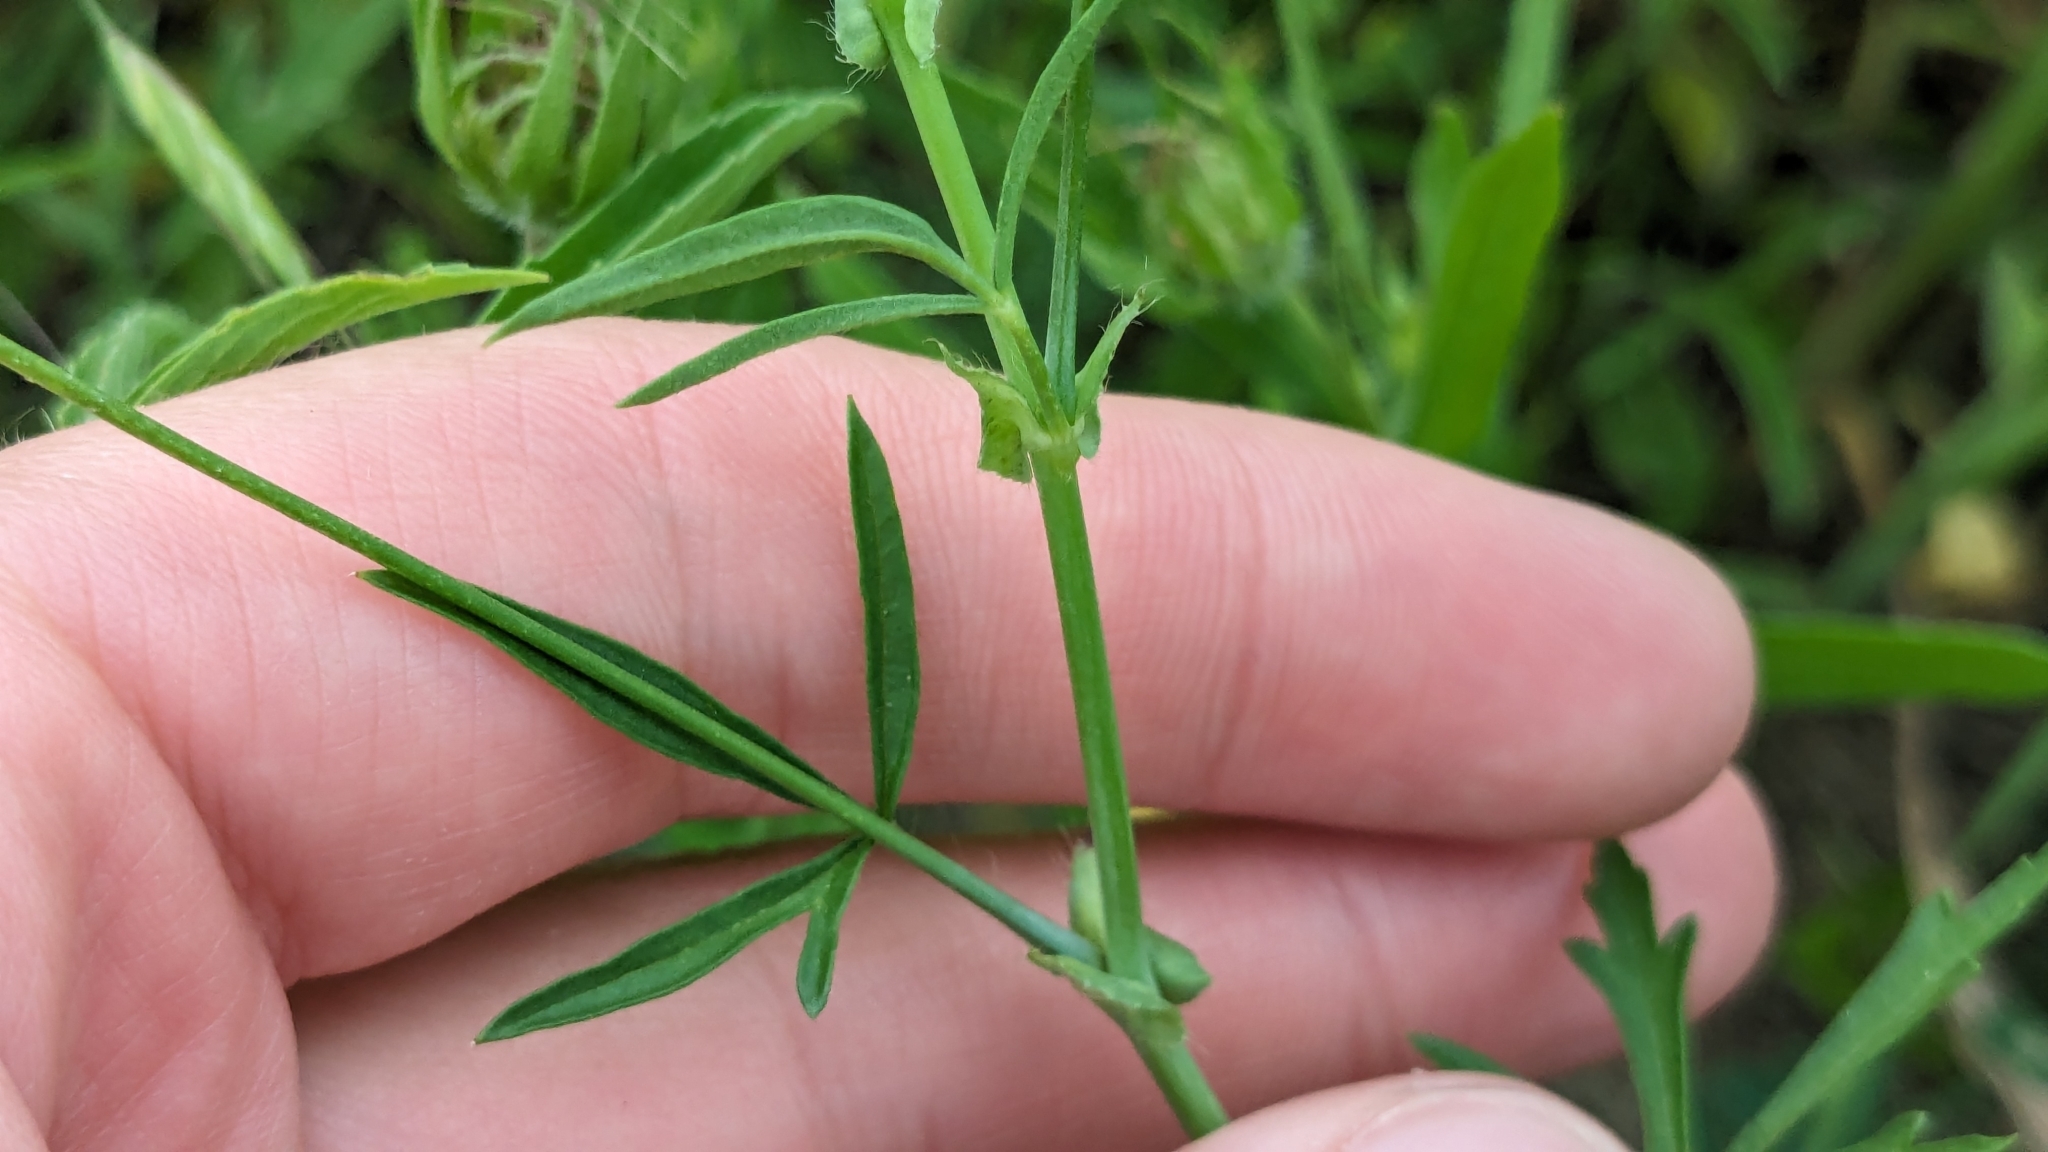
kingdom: Plantae
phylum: Tracheophyta
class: Magnoliopsida
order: Malvales
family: Malvaceae
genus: Callirhoe
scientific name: Callirhoe leiocarpa
